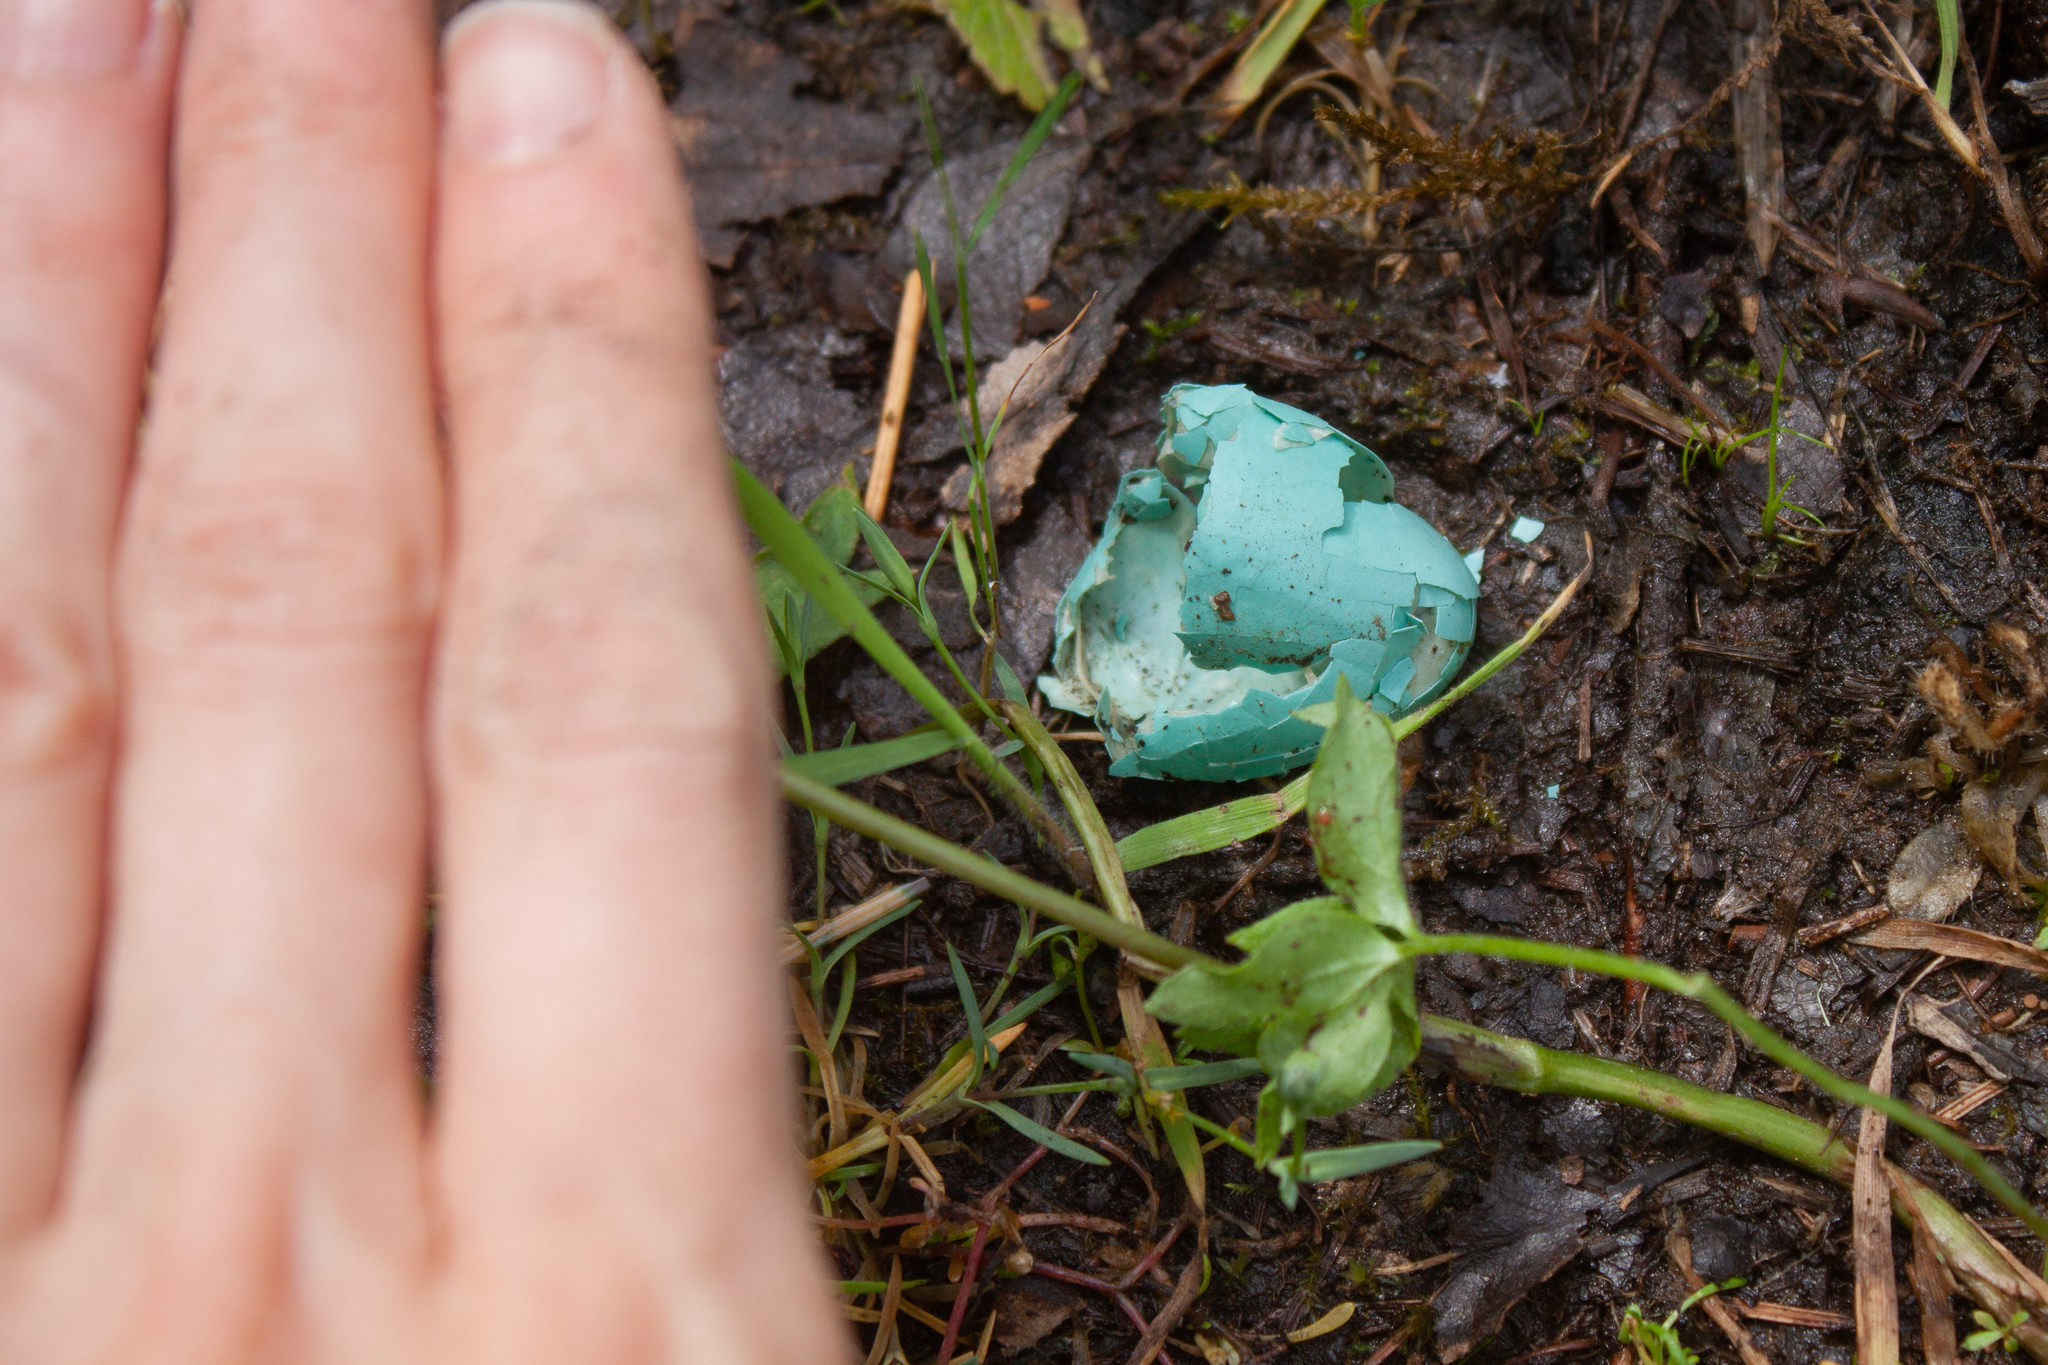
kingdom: Animalia
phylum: Chordata
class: Aves
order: Passeriformes
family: Turdidae
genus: Turdus
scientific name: Turdus migratorius
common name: American robin
